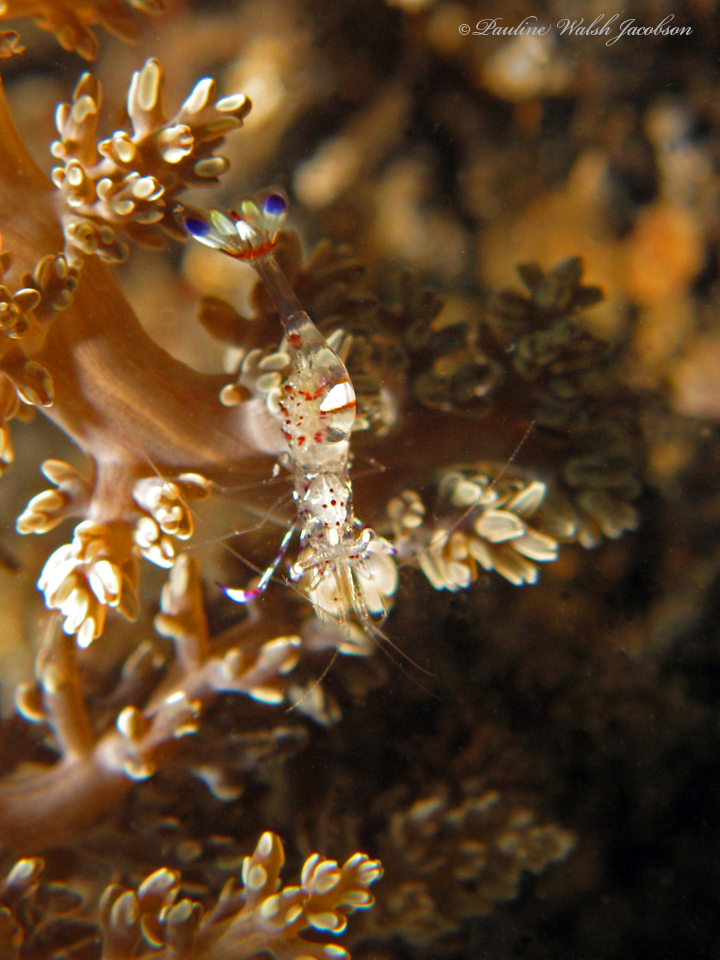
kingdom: Animalia
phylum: Arthropoda
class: Malacostraca
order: Decapoda
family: Palaemonidae
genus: Ancylomenes
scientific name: Ancylomenes holthuisi
